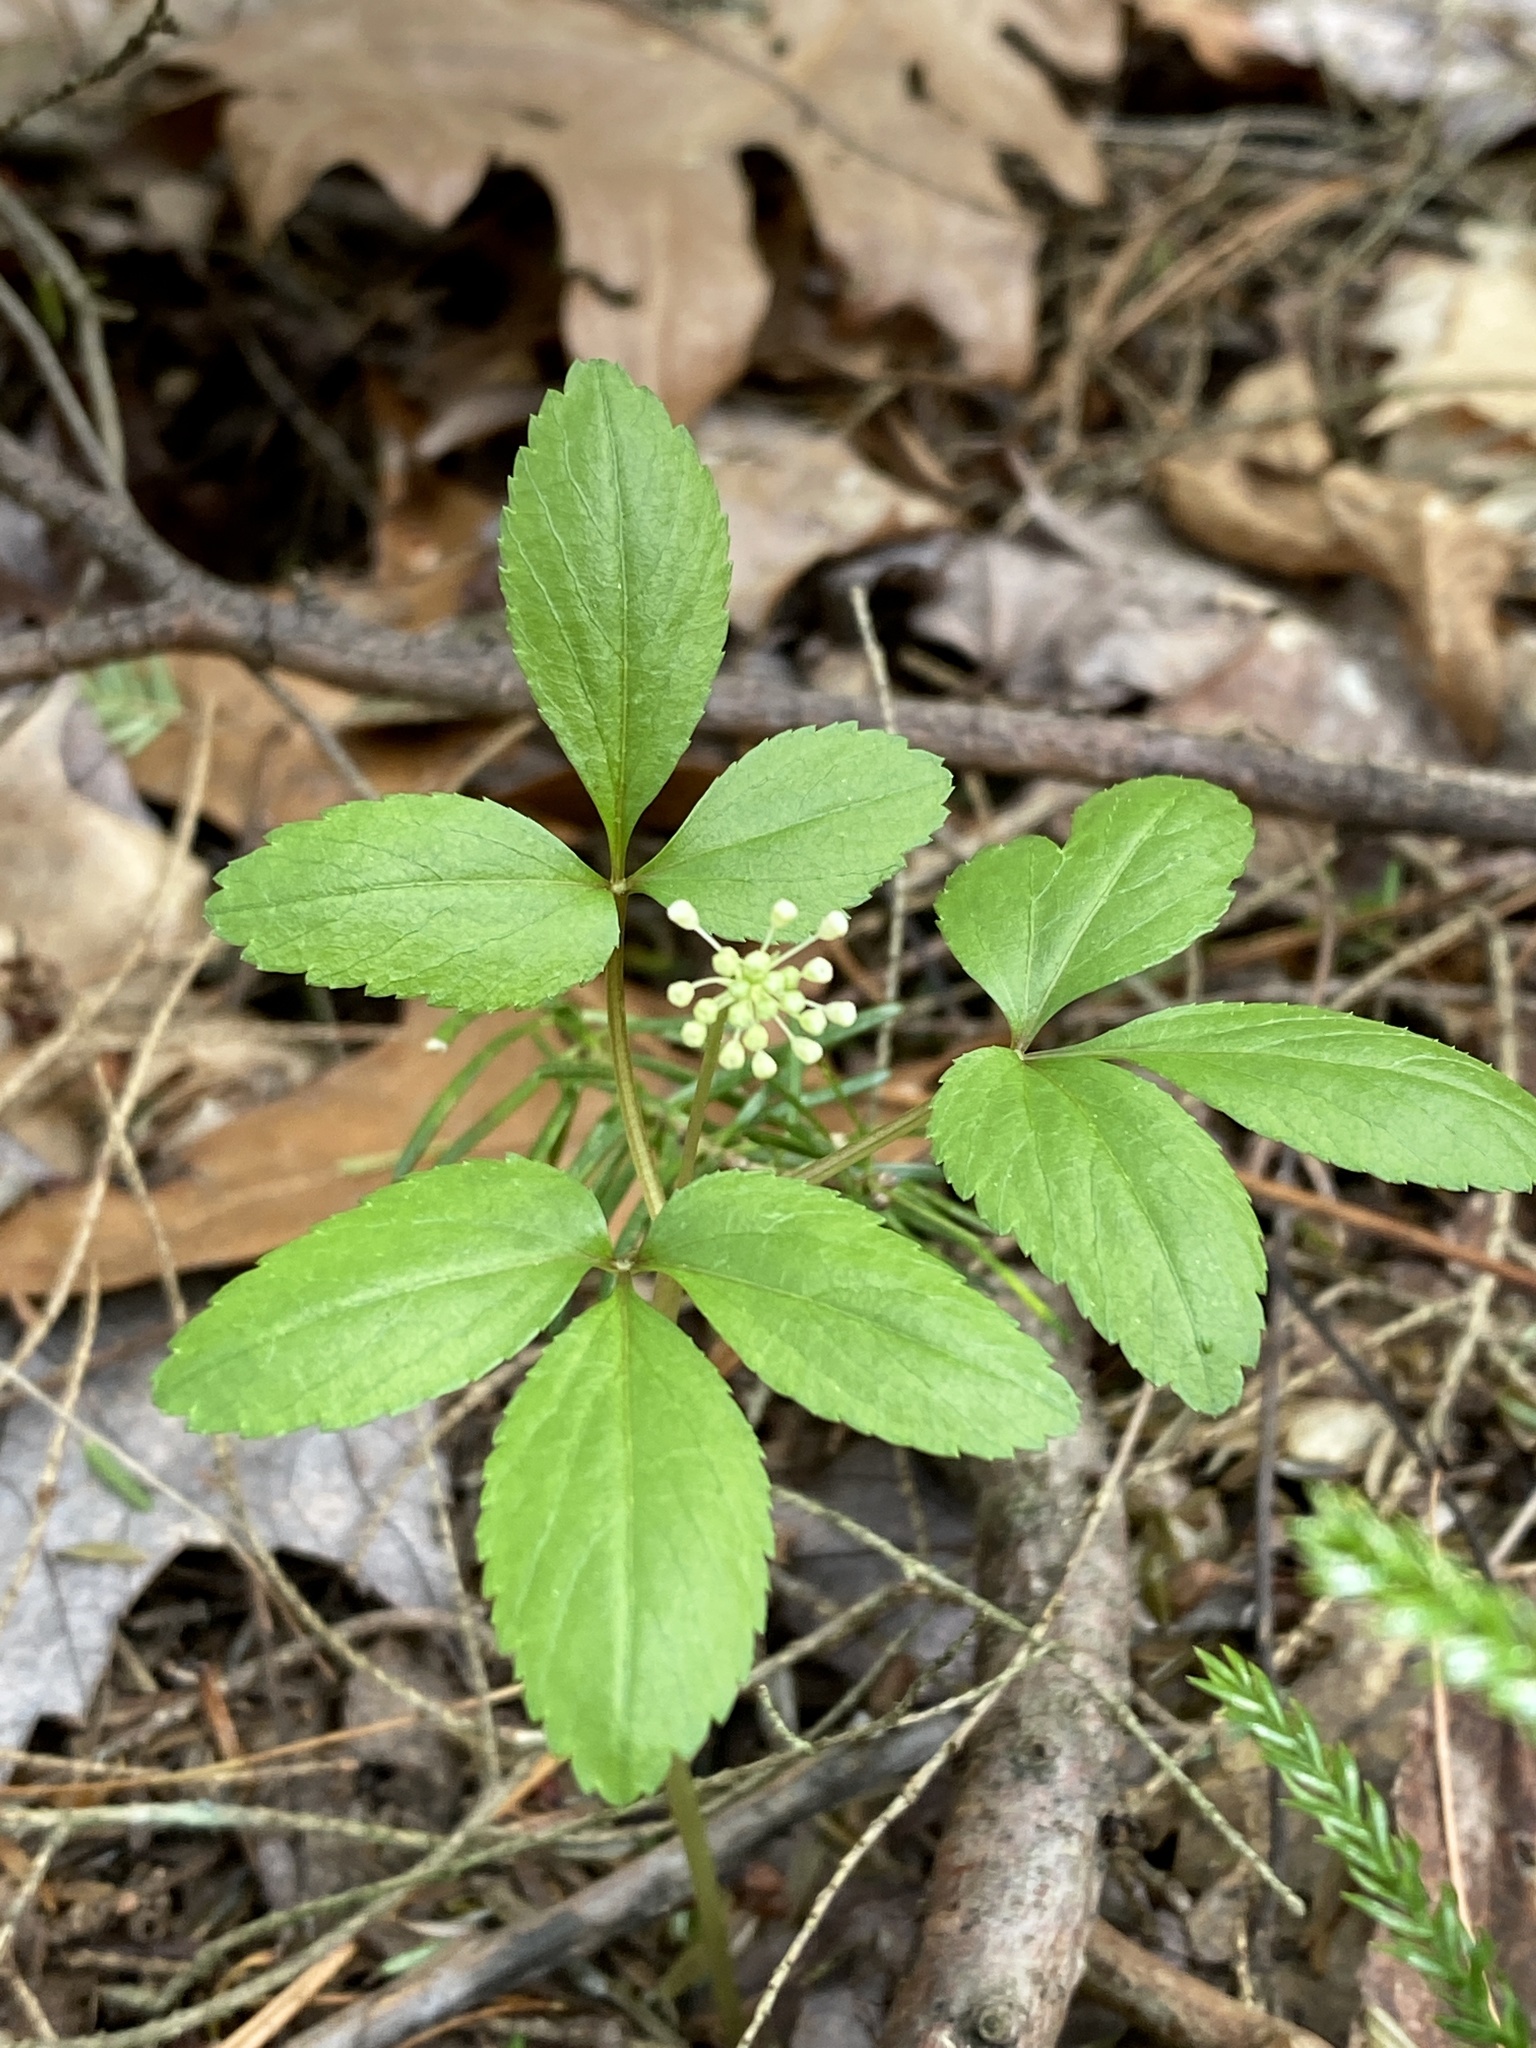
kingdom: Plantae
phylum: Tracheophyta
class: Magnoliopsida
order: Apiales
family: Araliaceae
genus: Panax
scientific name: Panax trifolius
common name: Dwarf ginseng
